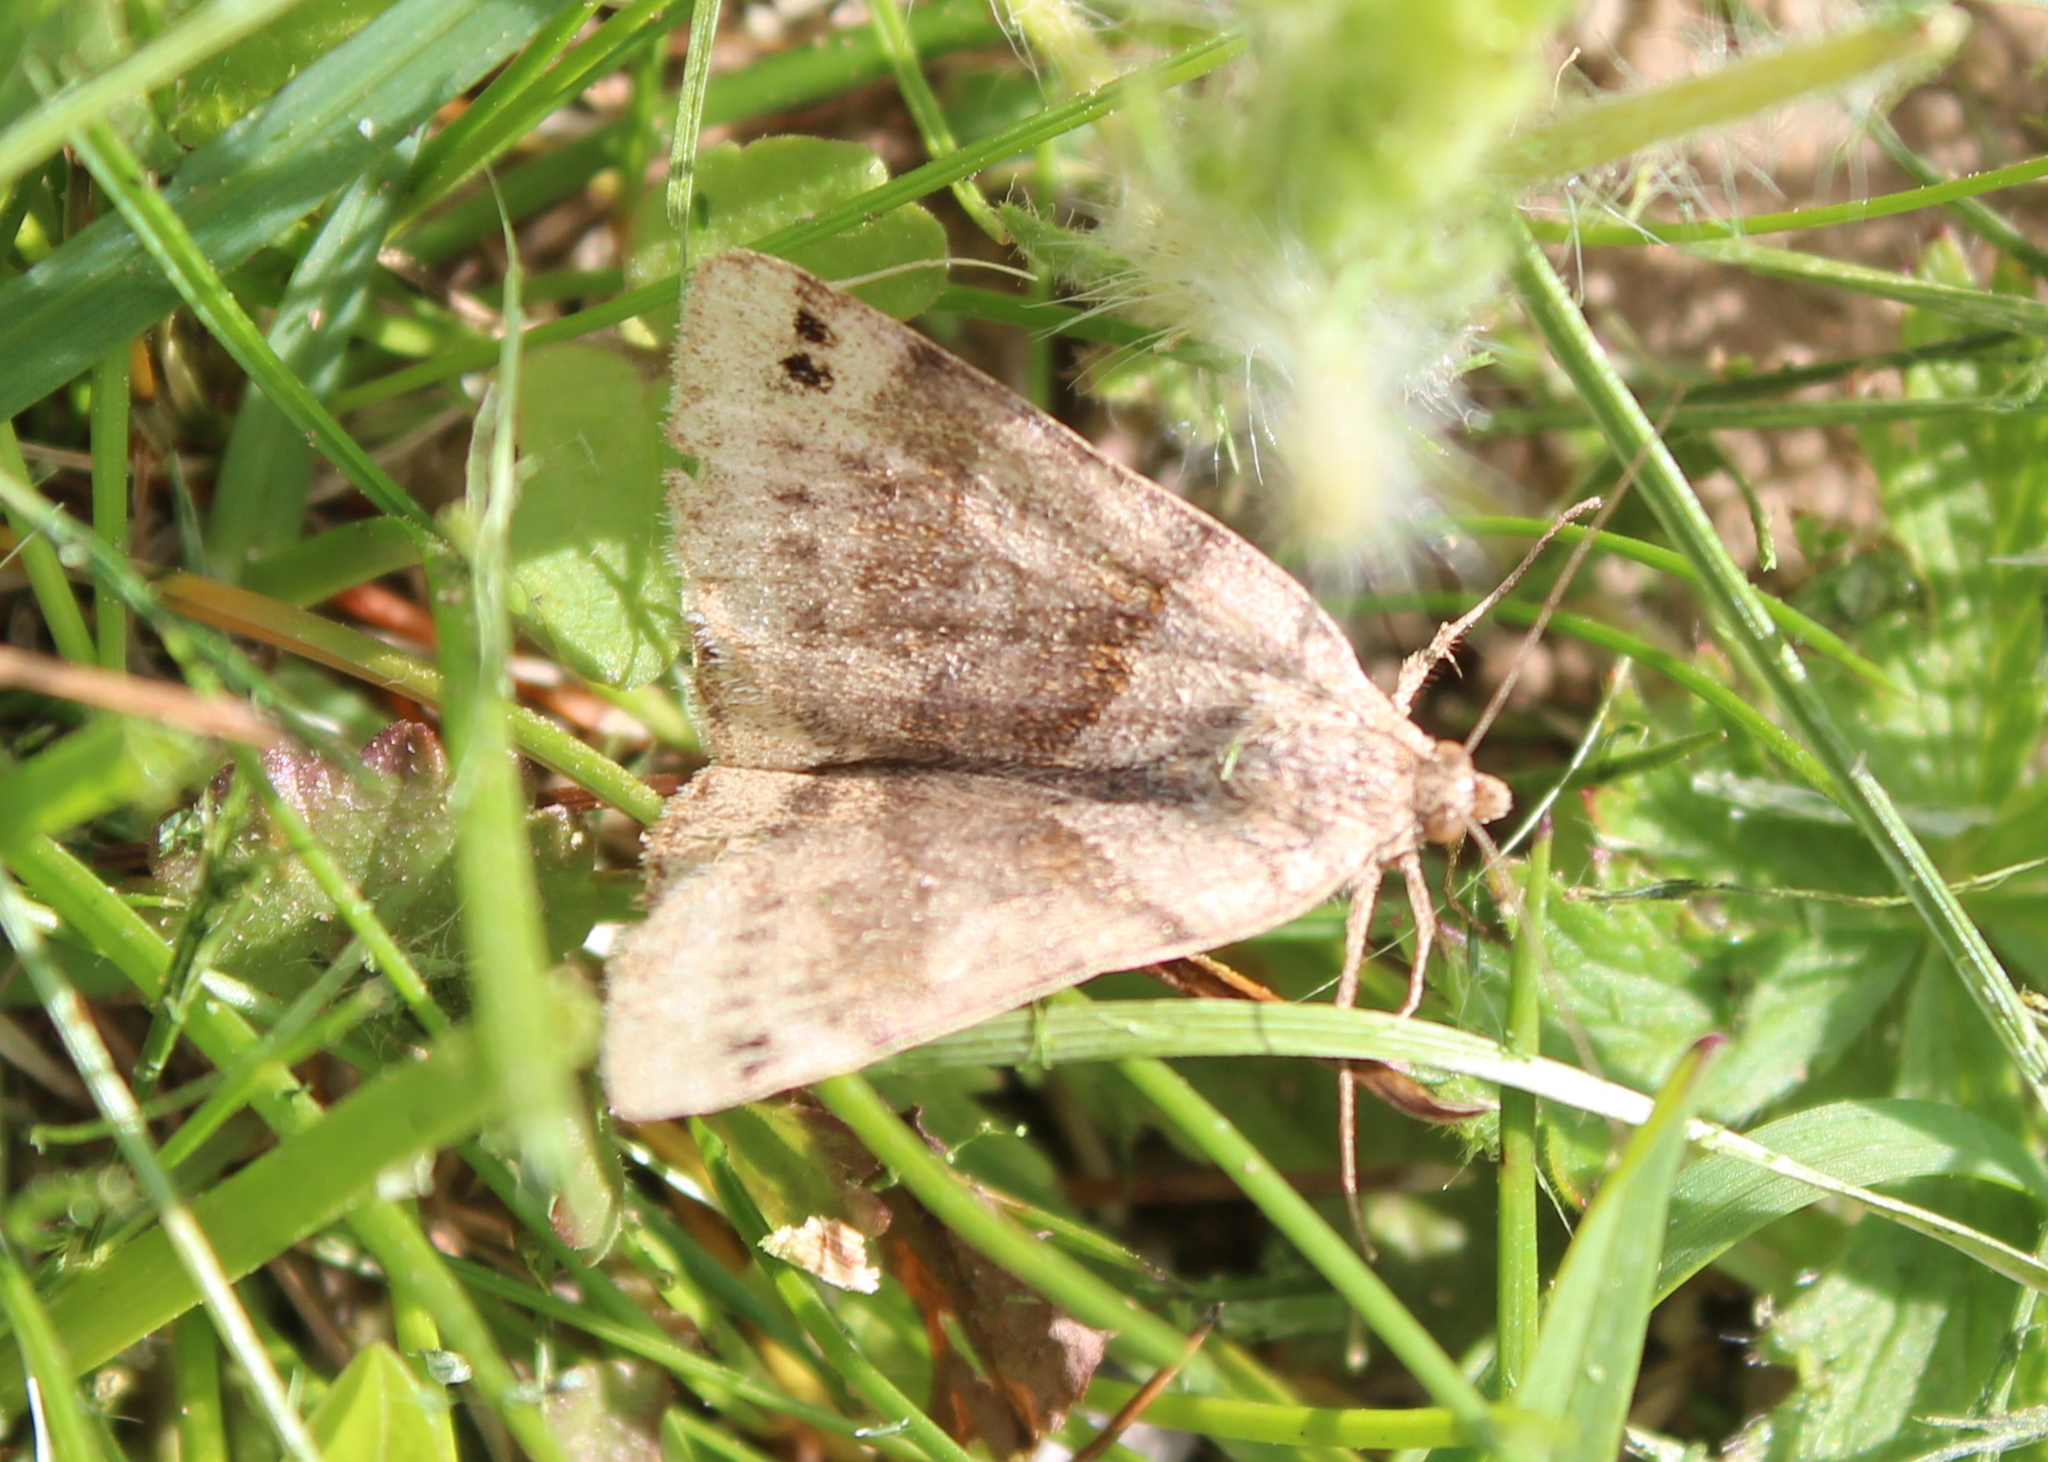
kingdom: Animalia
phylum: Arthropoda
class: Insecta
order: Lepidoptera
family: Erebidae
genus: Caenurgina
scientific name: Caenurgina crassiuscula
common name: Double-barred
